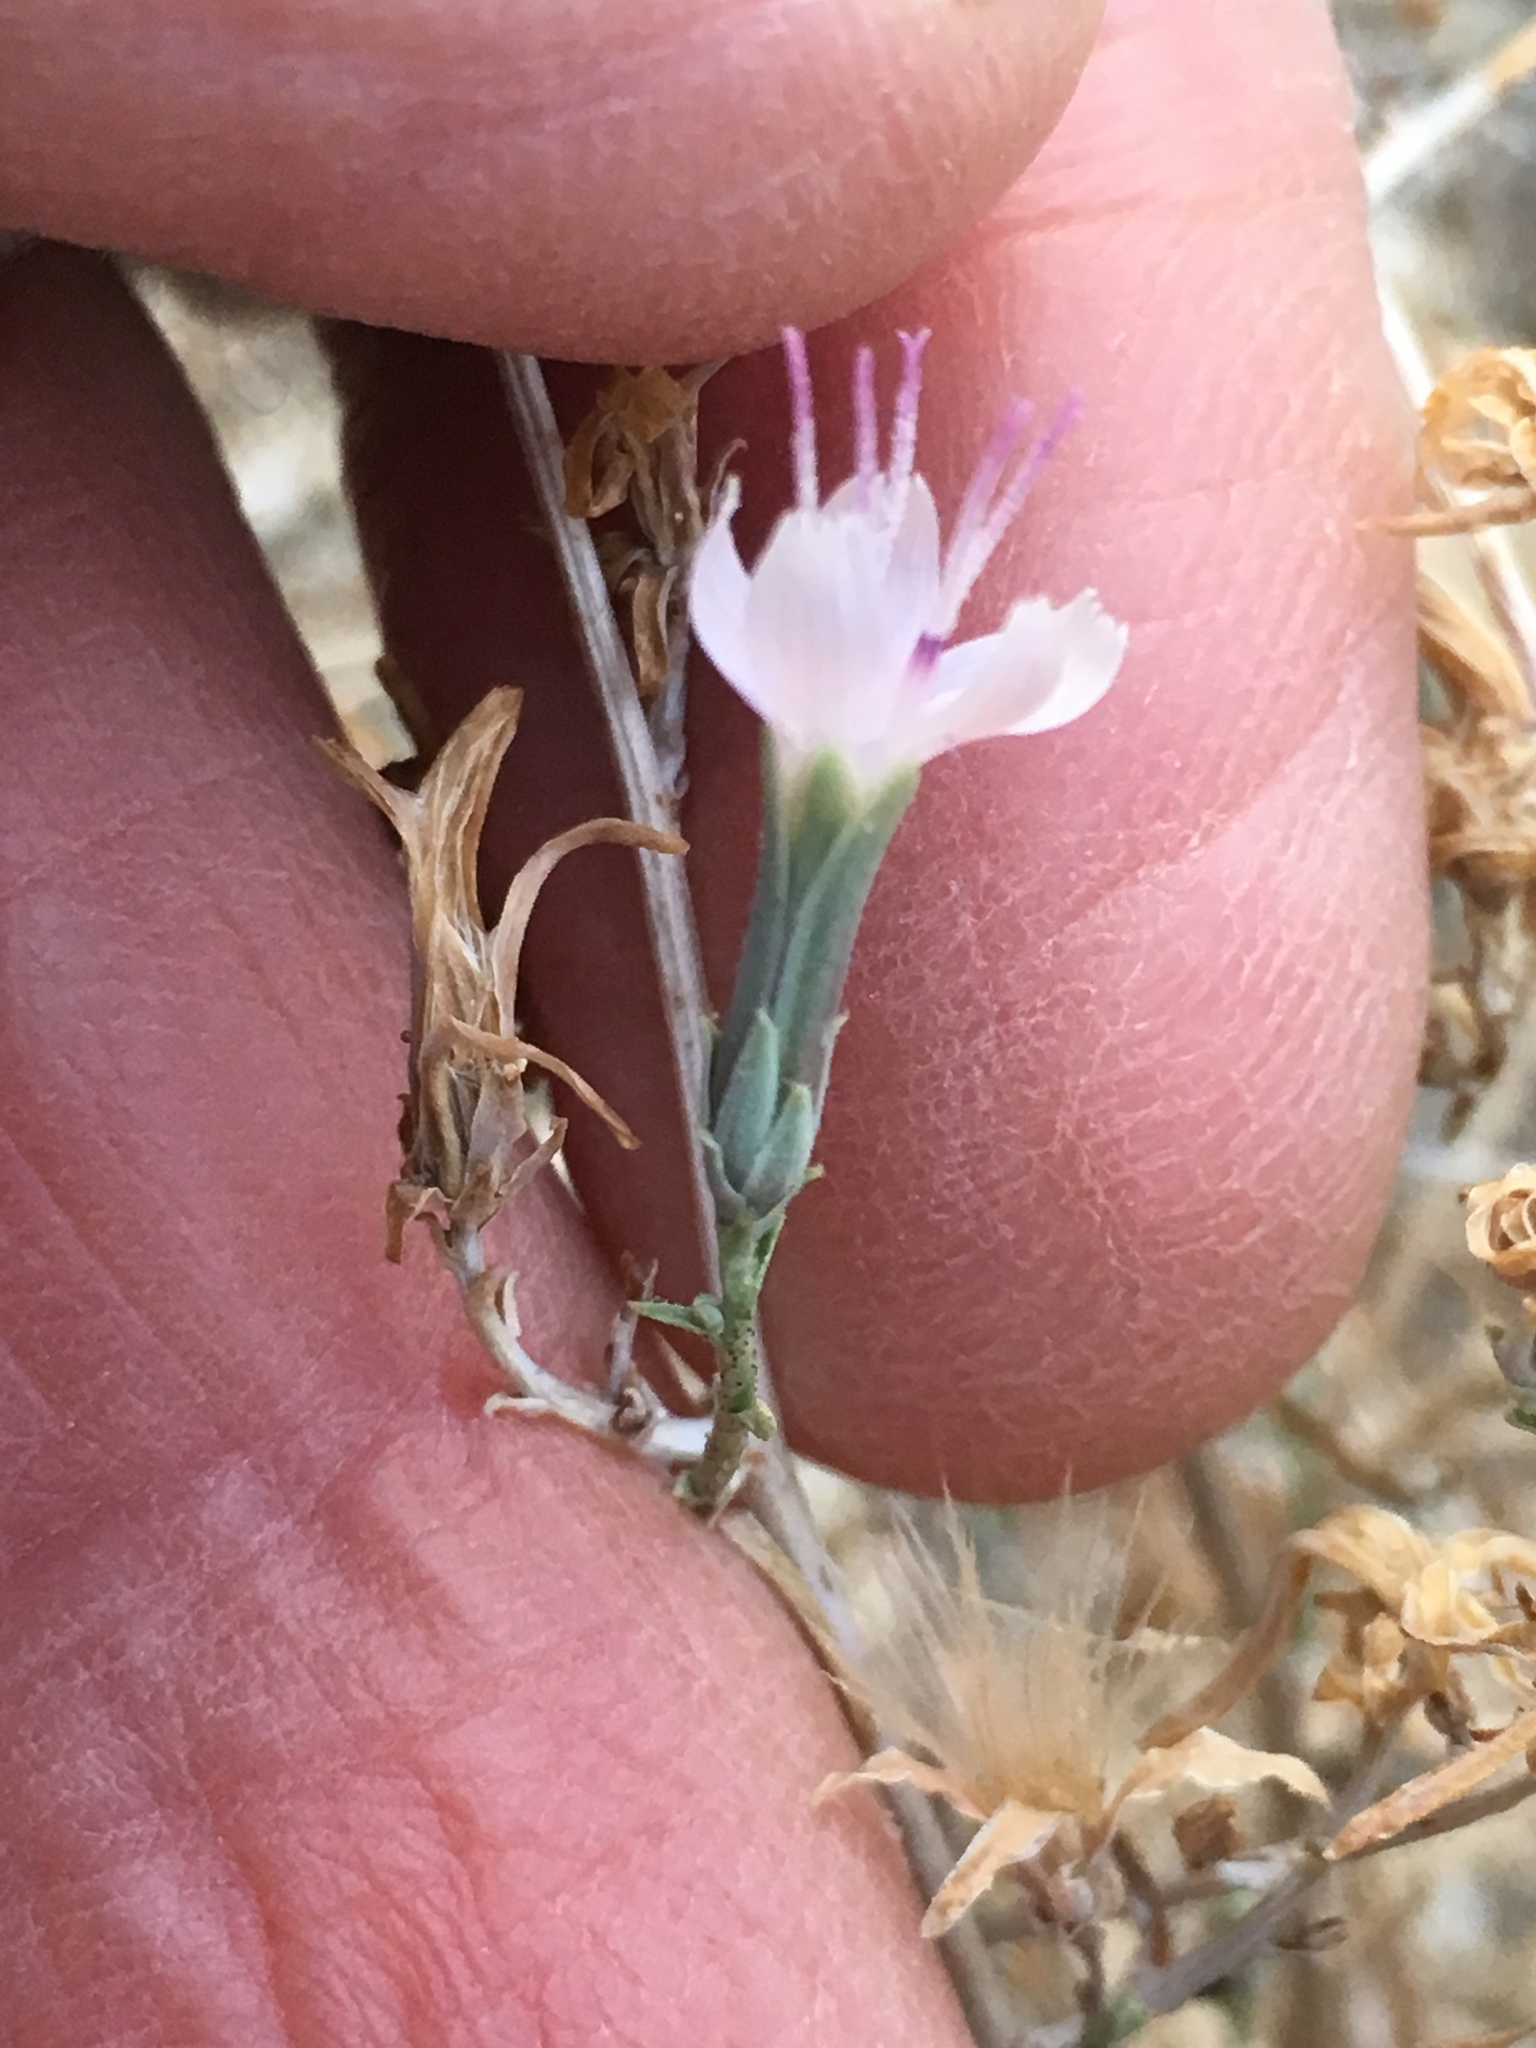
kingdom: Plantae
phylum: Tracheophyta
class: Magnoliopsida
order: Asterales
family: Asteraceae
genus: Stephanomeria
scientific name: Stephanomeria pauciflora
